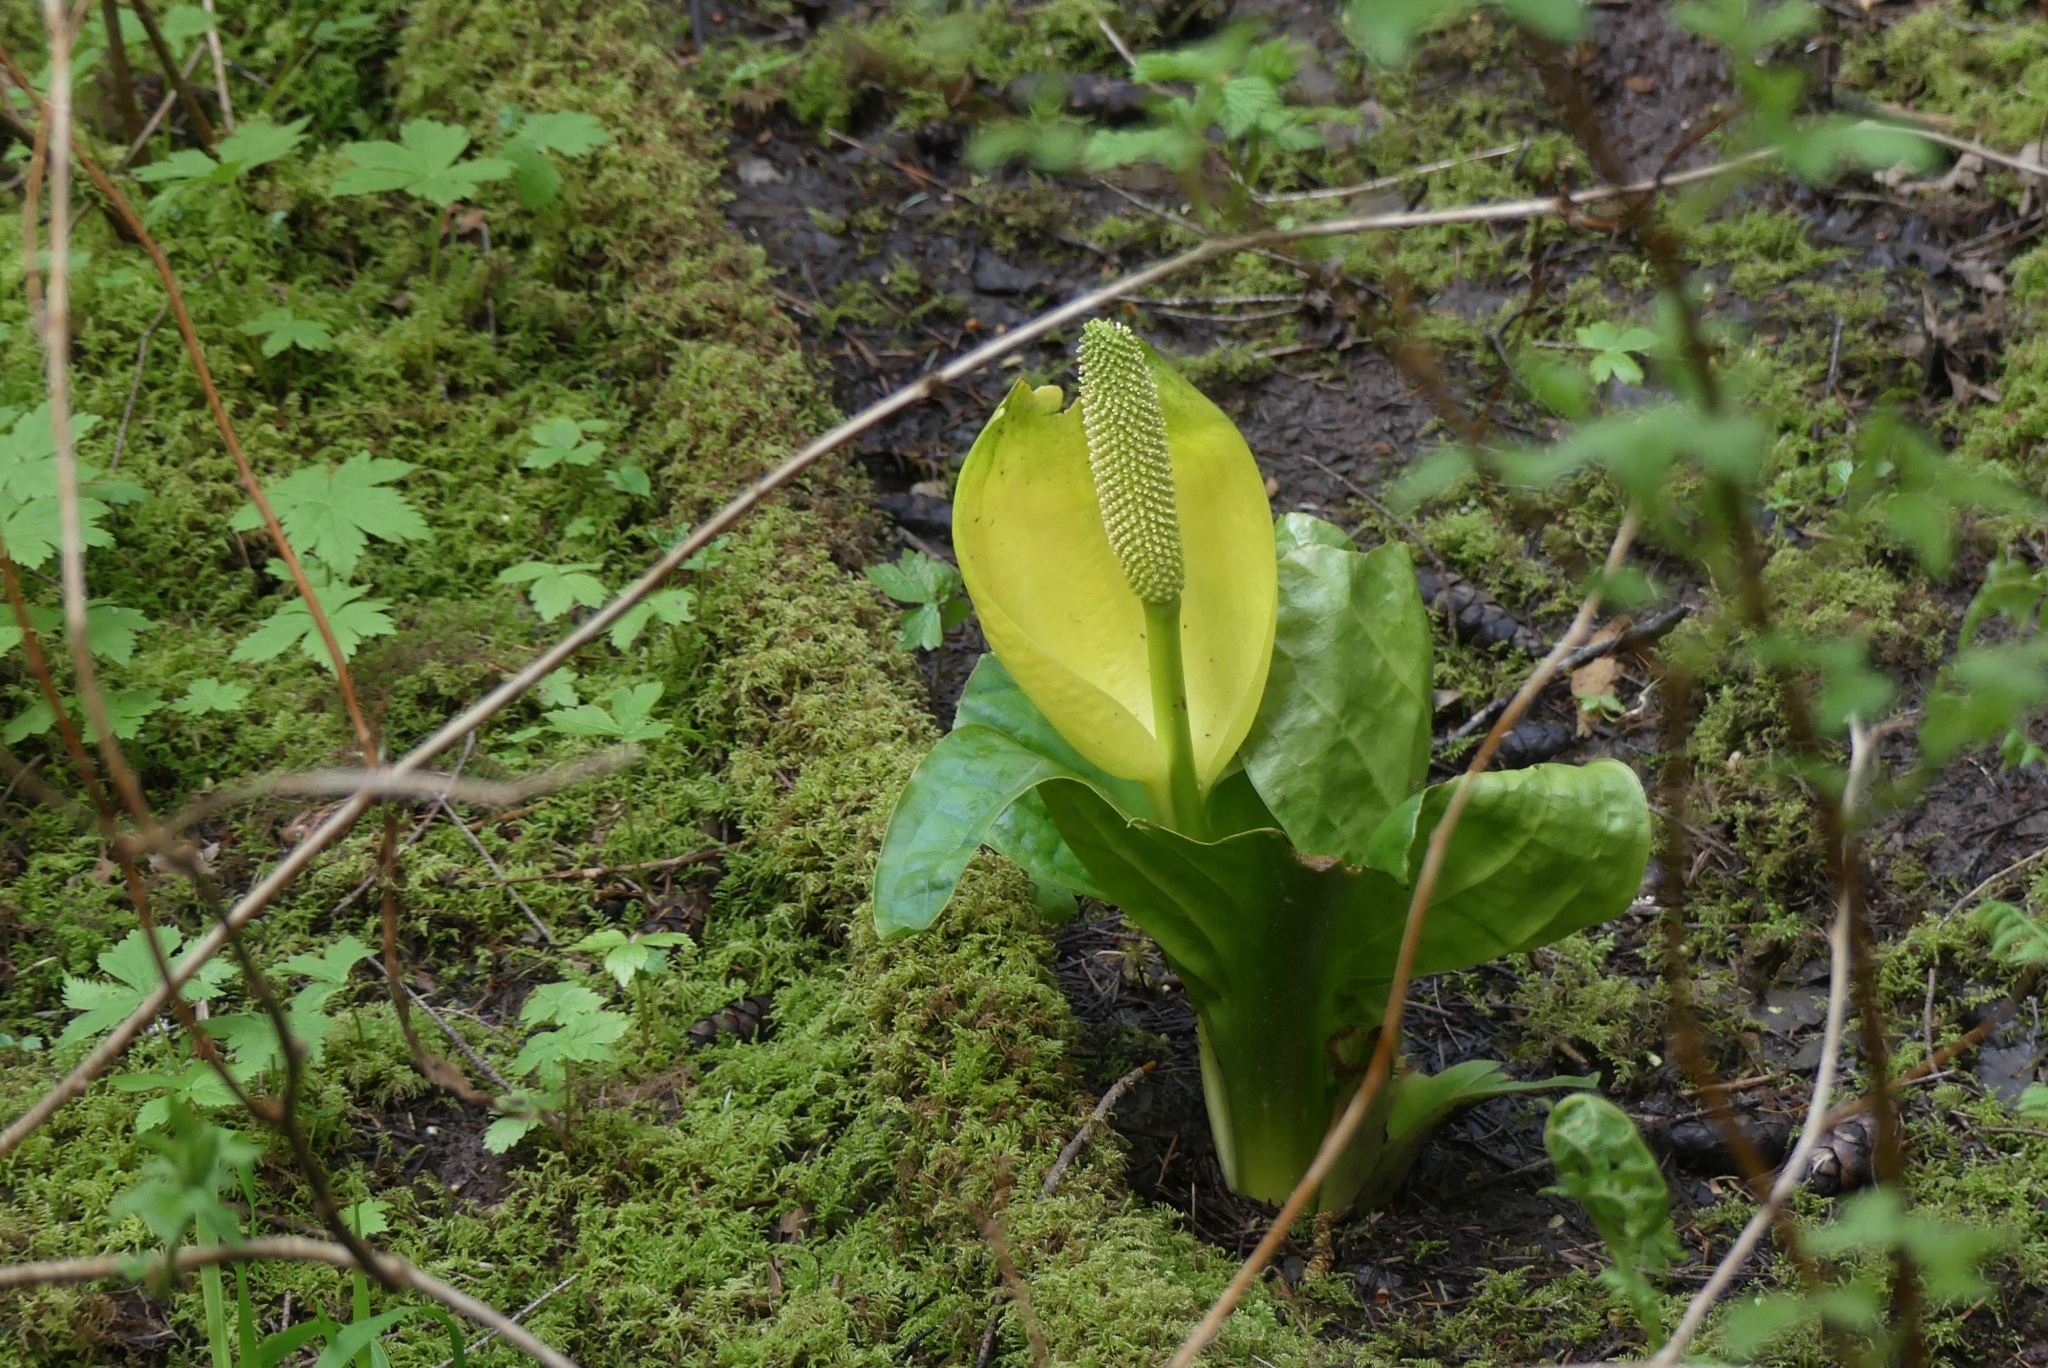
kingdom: Plantae
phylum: Tracheophyta
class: Liliopsida
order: Alismatales
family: Araceae
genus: Lysichiton
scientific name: Lysichiton americanus
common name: American skunk cabbage
